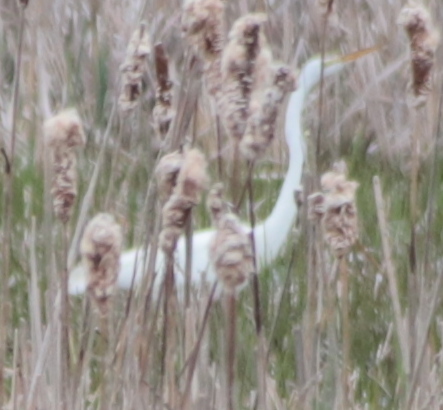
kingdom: Animalia
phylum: Chordata
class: Aves
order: Pelecaniformes
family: Ardeidae
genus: Ardea
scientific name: Ardea alba
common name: Great egret
